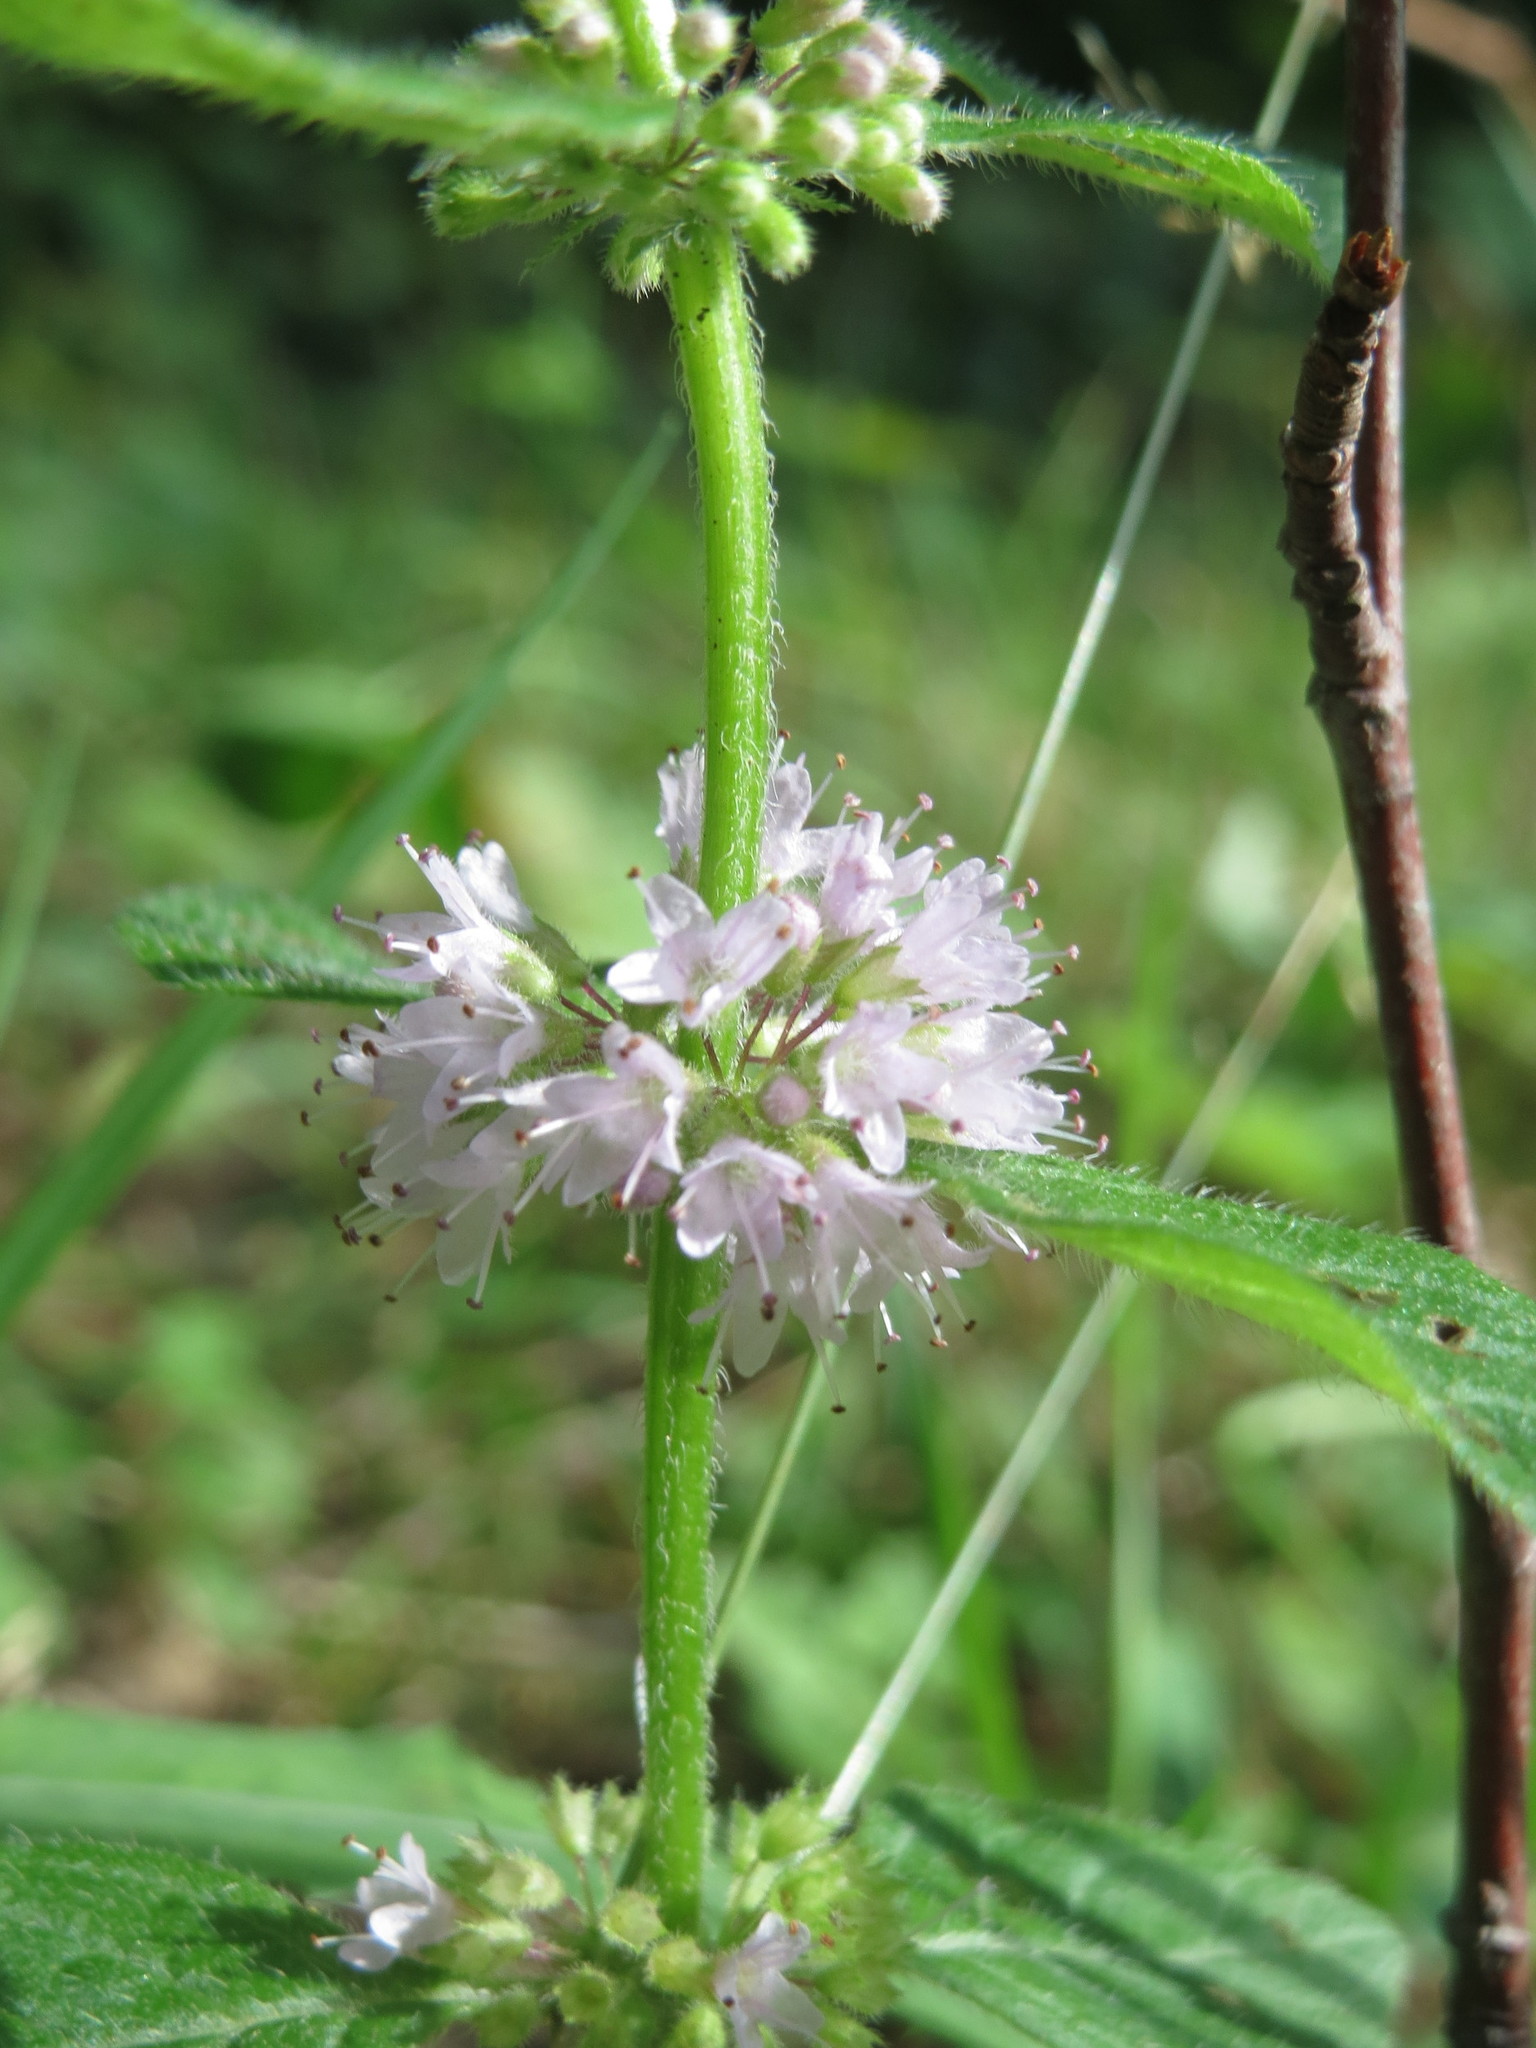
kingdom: Plantae
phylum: Tracheophyta
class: Magnoliopsida
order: Lamiales
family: Lamiaceae
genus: Mentha
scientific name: Mentha arvensis
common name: Corn mint
